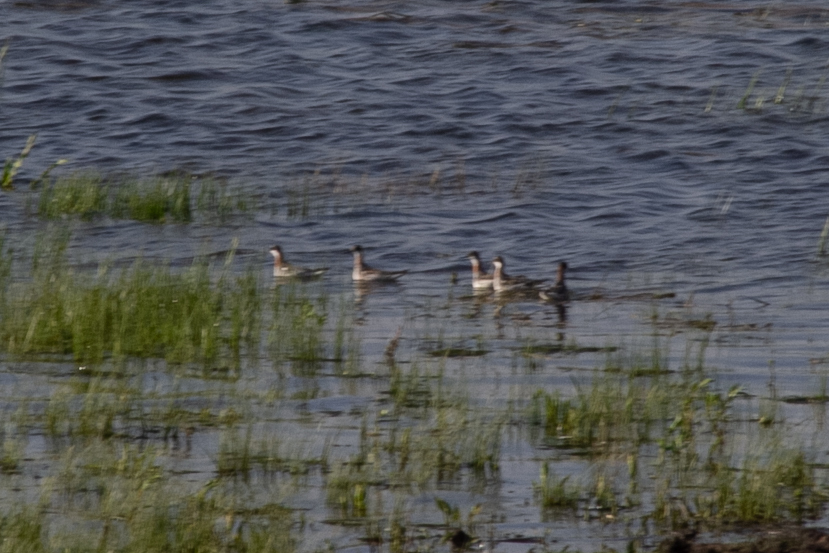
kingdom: Animalia
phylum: Chordata
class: Aves
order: Charadriiformes
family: Scolopacidae
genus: Phalaropus
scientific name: Phalaropus lobatus
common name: Red-necked phalarope
